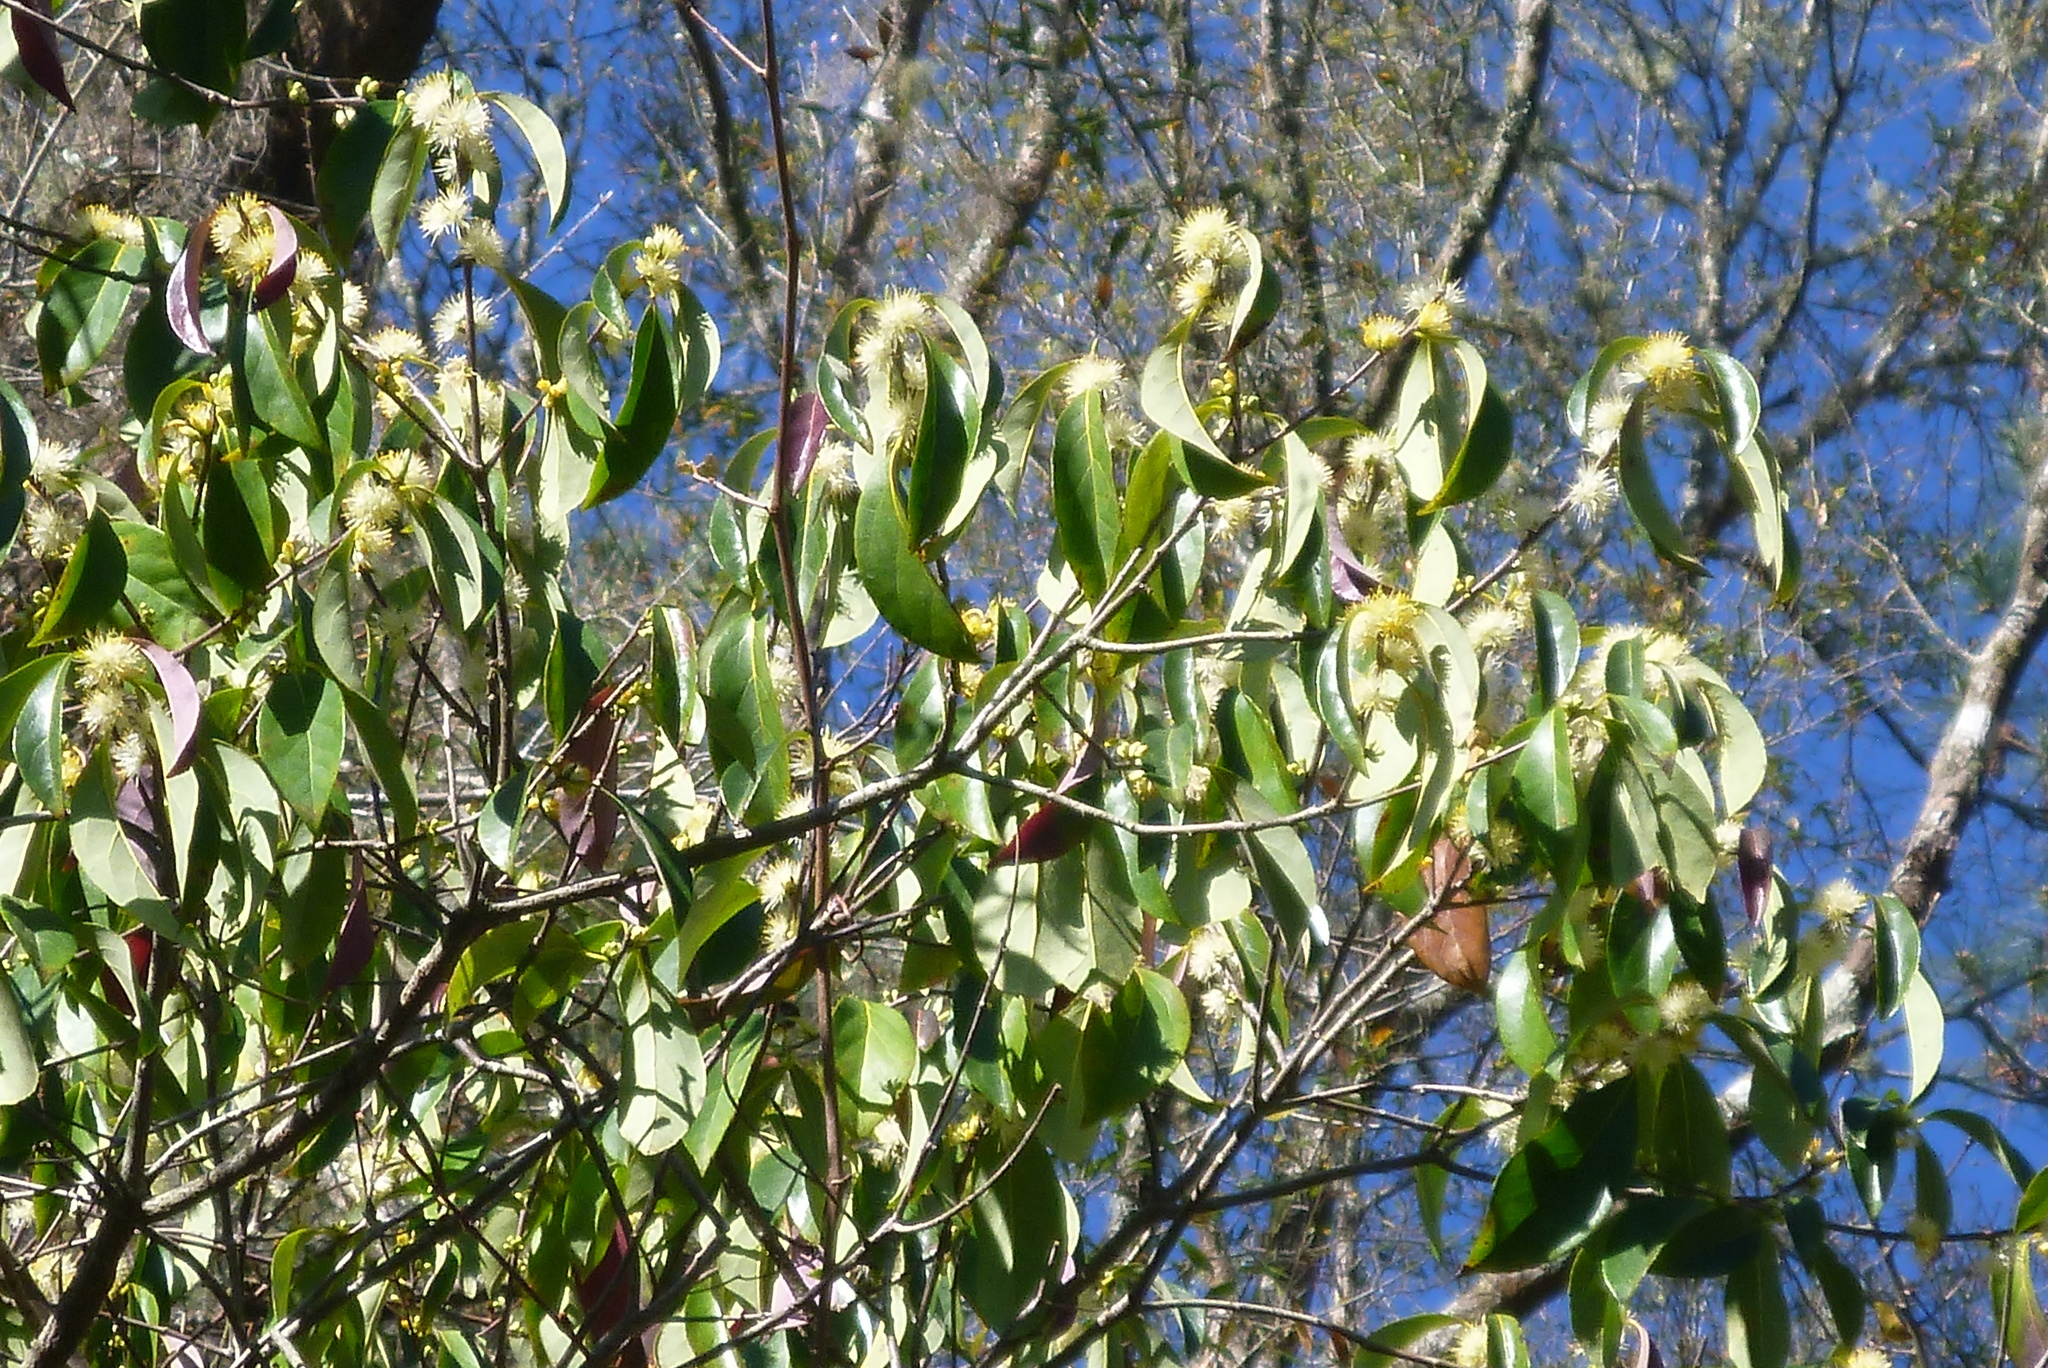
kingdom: Plantae
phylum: Tracheophyta
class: Magnoliopsida
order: Ericales
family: Symplocaceae
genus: Symplocos
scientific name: Symplocos tinctoria
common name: Horse-sugar
